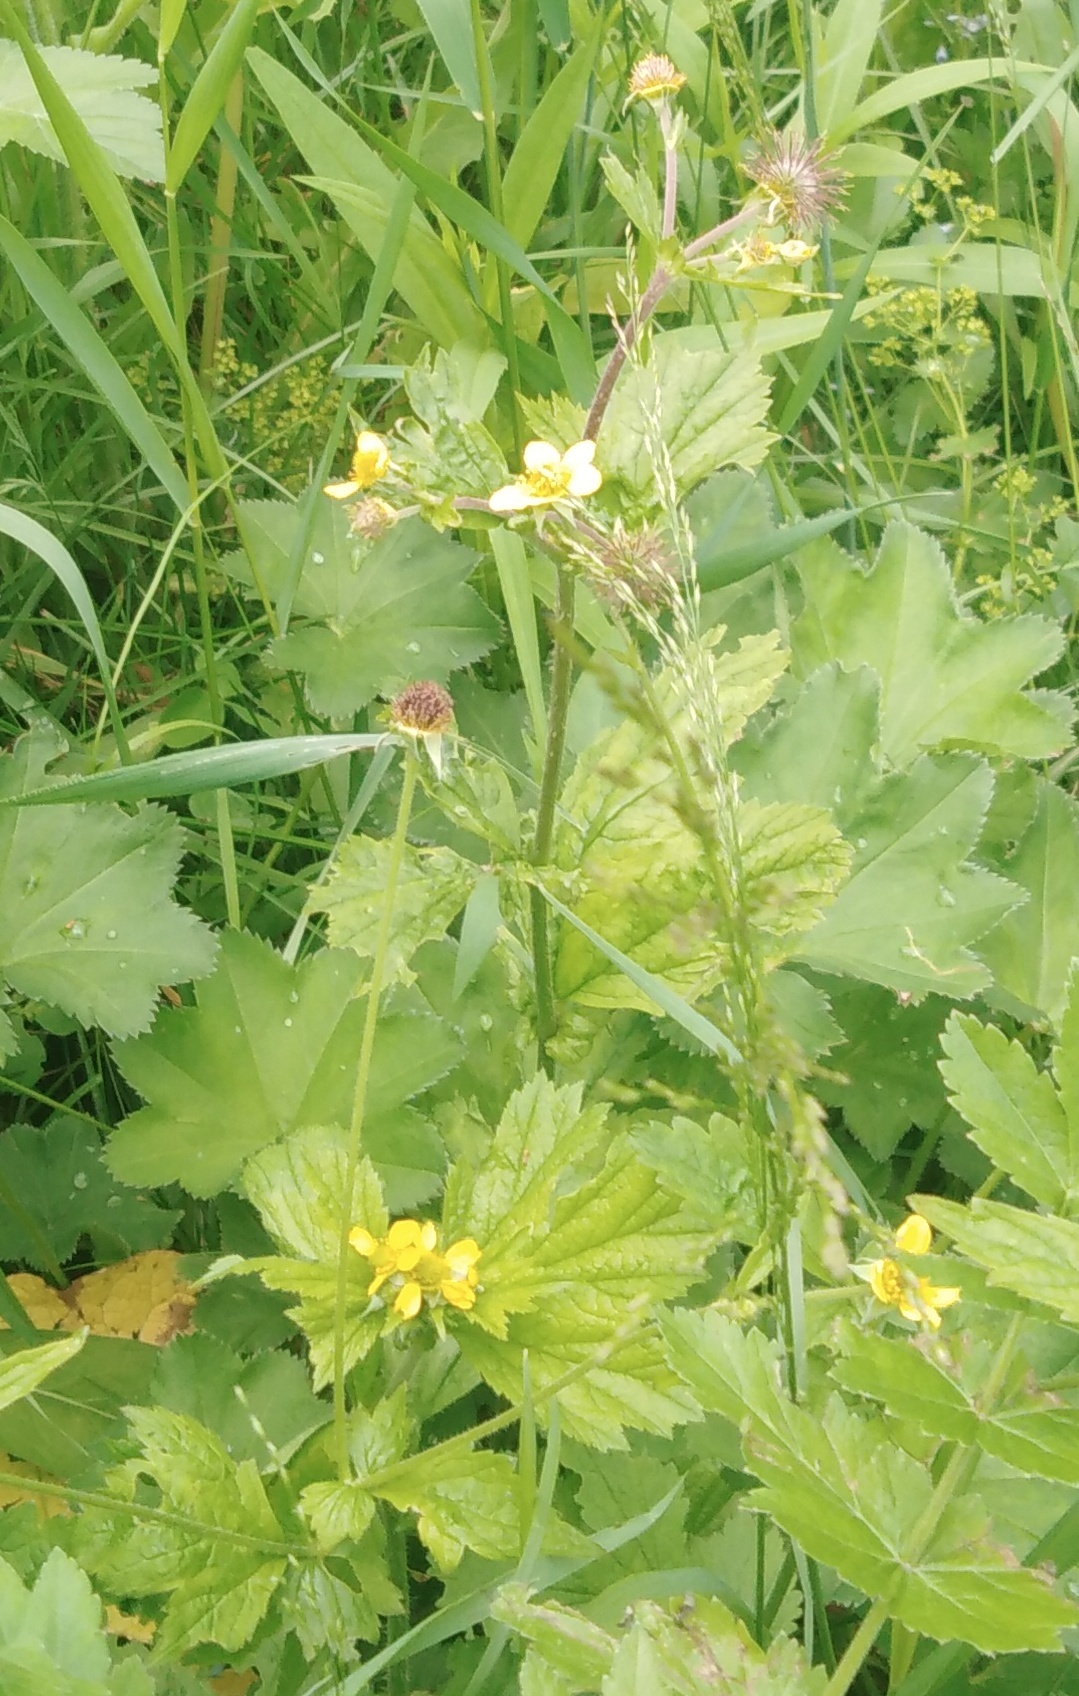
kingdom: Plantae
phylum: Tracheophyta
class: Magnoliopsida
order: Rosales
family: Rosaceae
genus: Geum
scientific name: Geum macrophyllum
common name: Large-leaved avens
